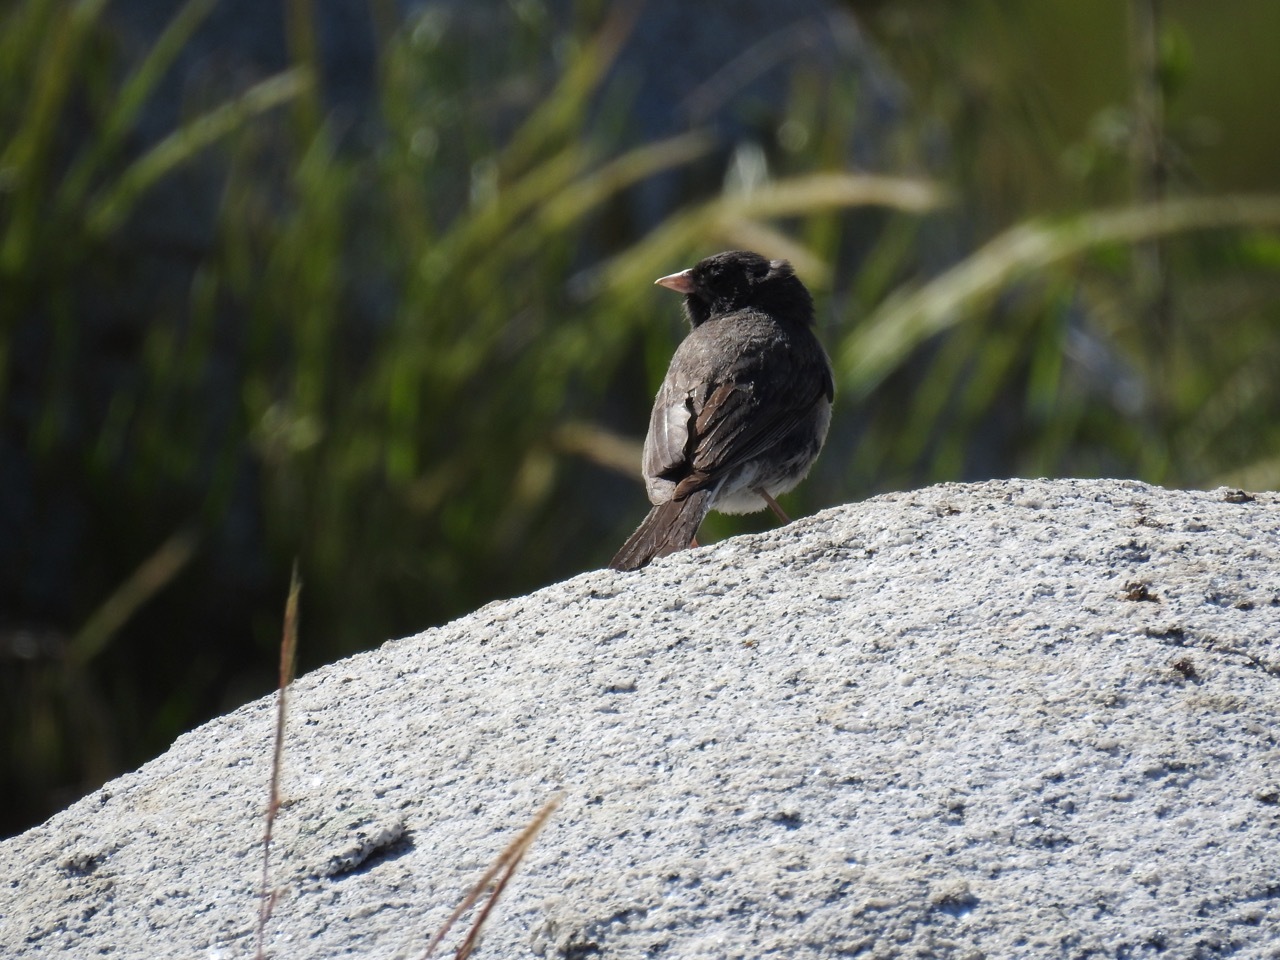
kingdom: Animalia
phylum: Chordata
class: Aves
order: Passeriformes
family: Passerellidae
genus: Junco
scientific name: Junco hyemalis
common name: Dark-eyed junco
